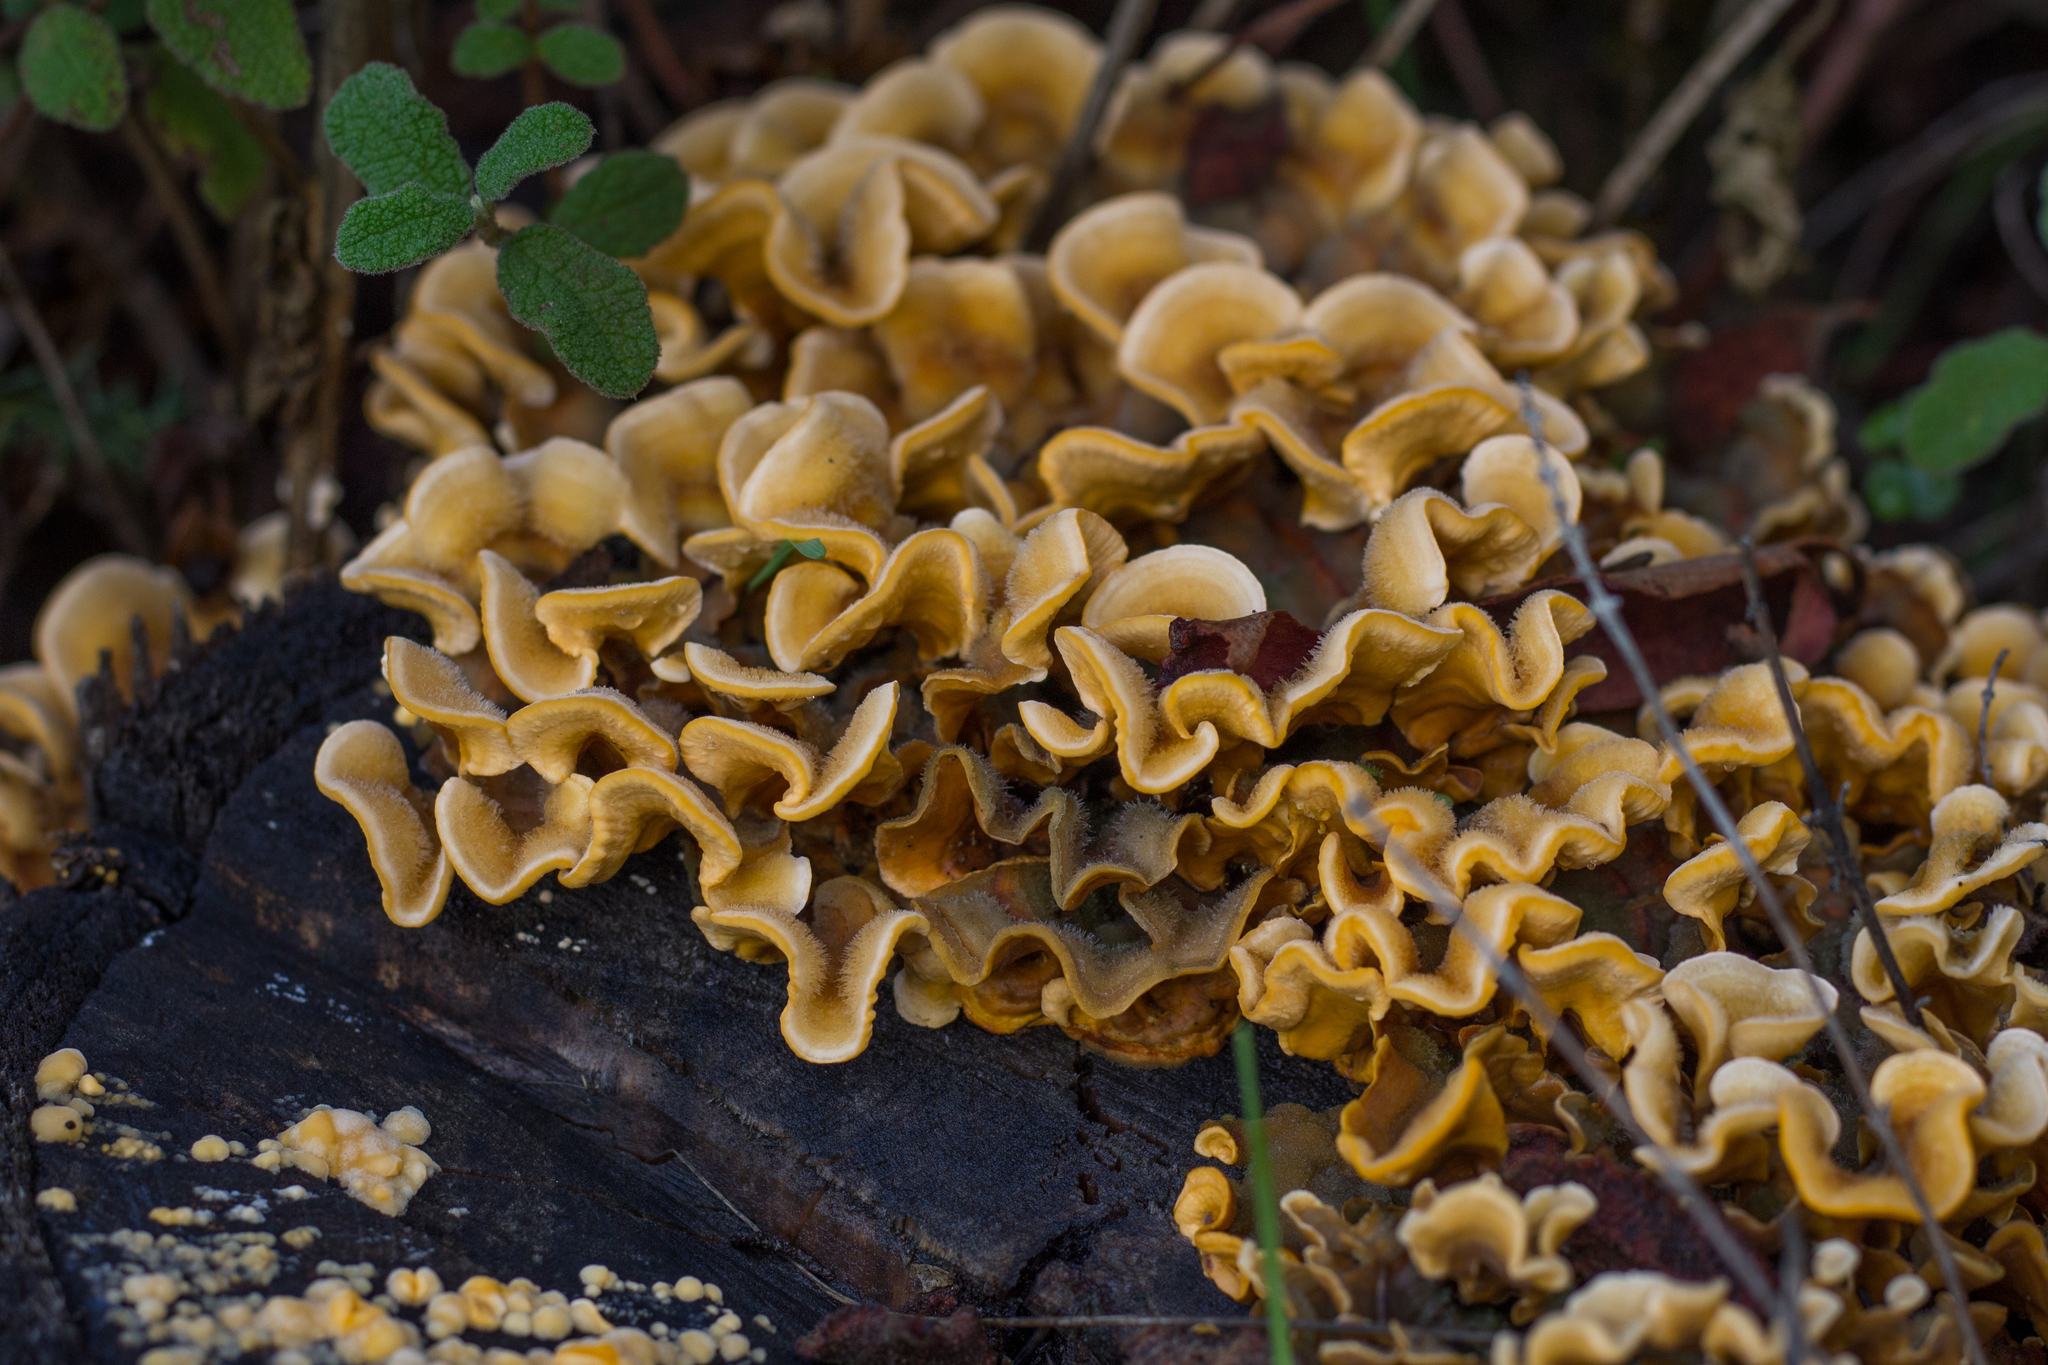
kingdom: Fungi
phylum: Basidiomycota
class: Agaricomycetes
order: Russulales
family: Stereaceae
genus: Stereum
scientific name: Stereum hirsutum
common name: Hairy curtain crust
